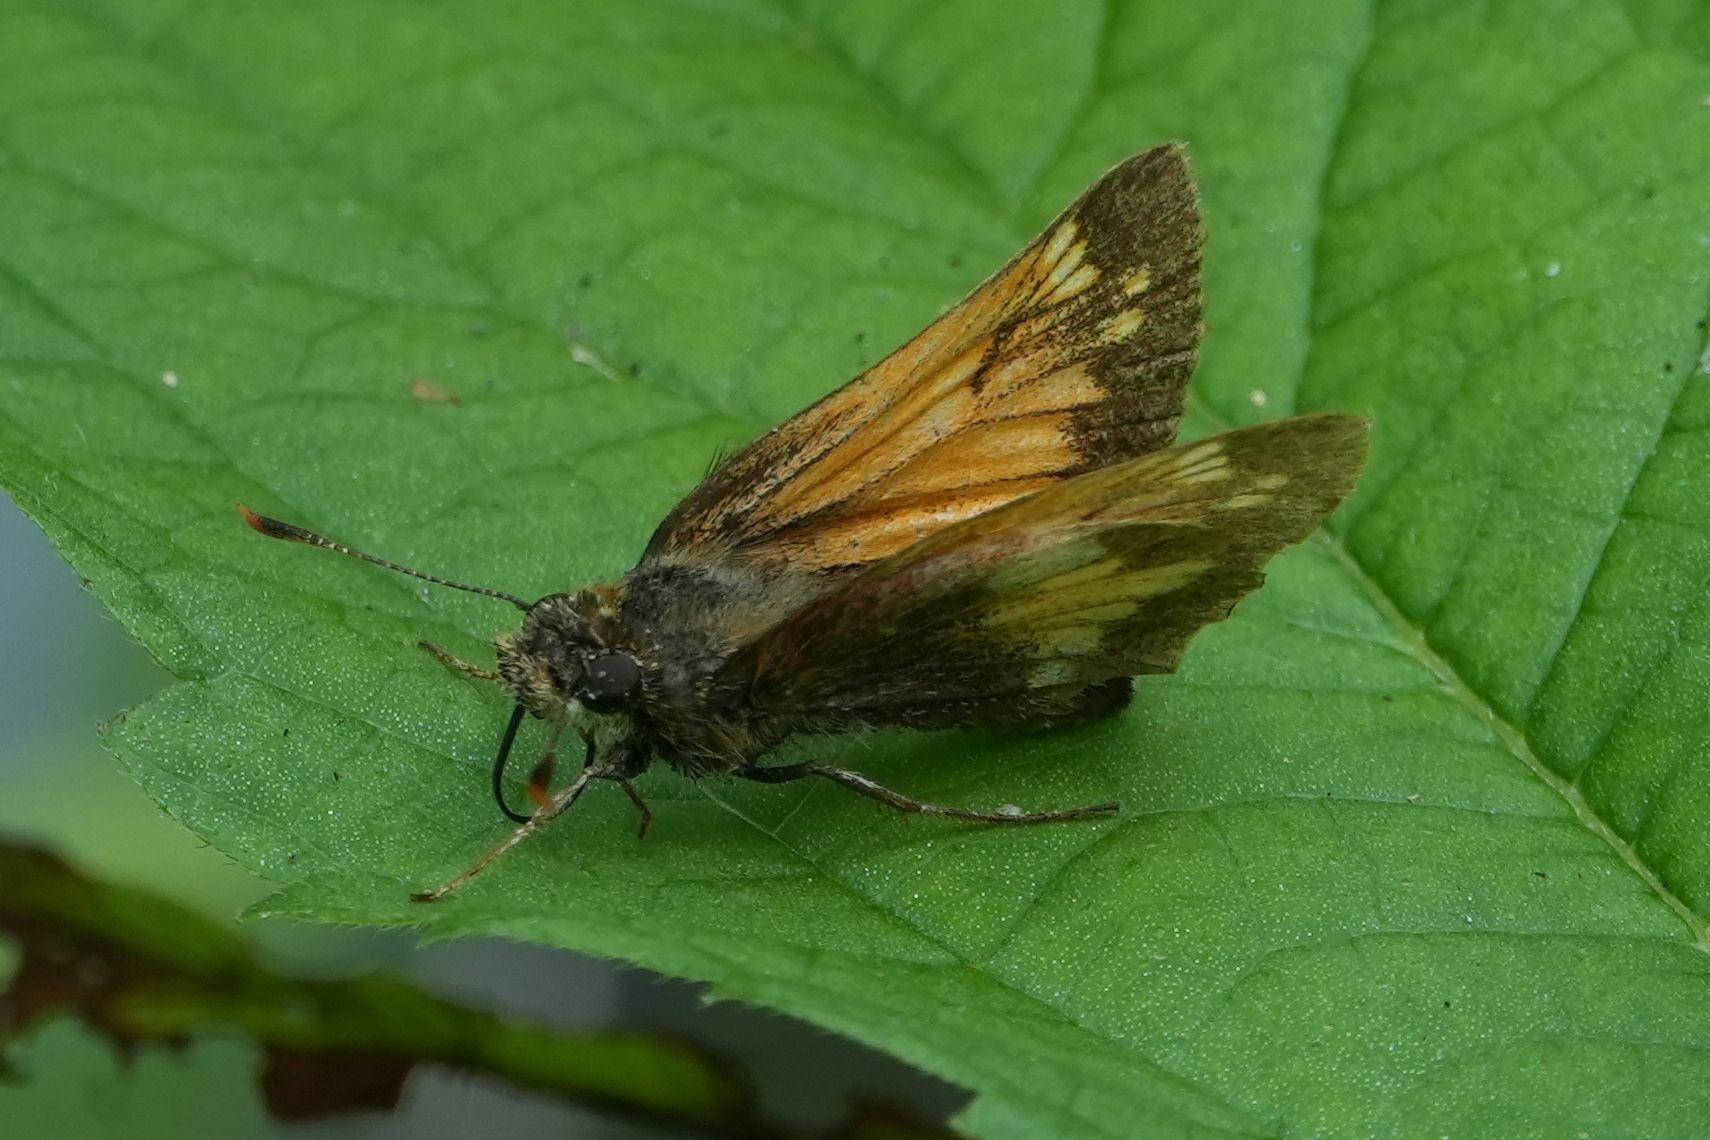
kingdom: Animalia
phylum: Arthropoda
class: Insecta
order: Lepidoptera
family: Hesperiidae
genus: Lon
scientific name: Lon hobomok
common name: Hobomok skipper
